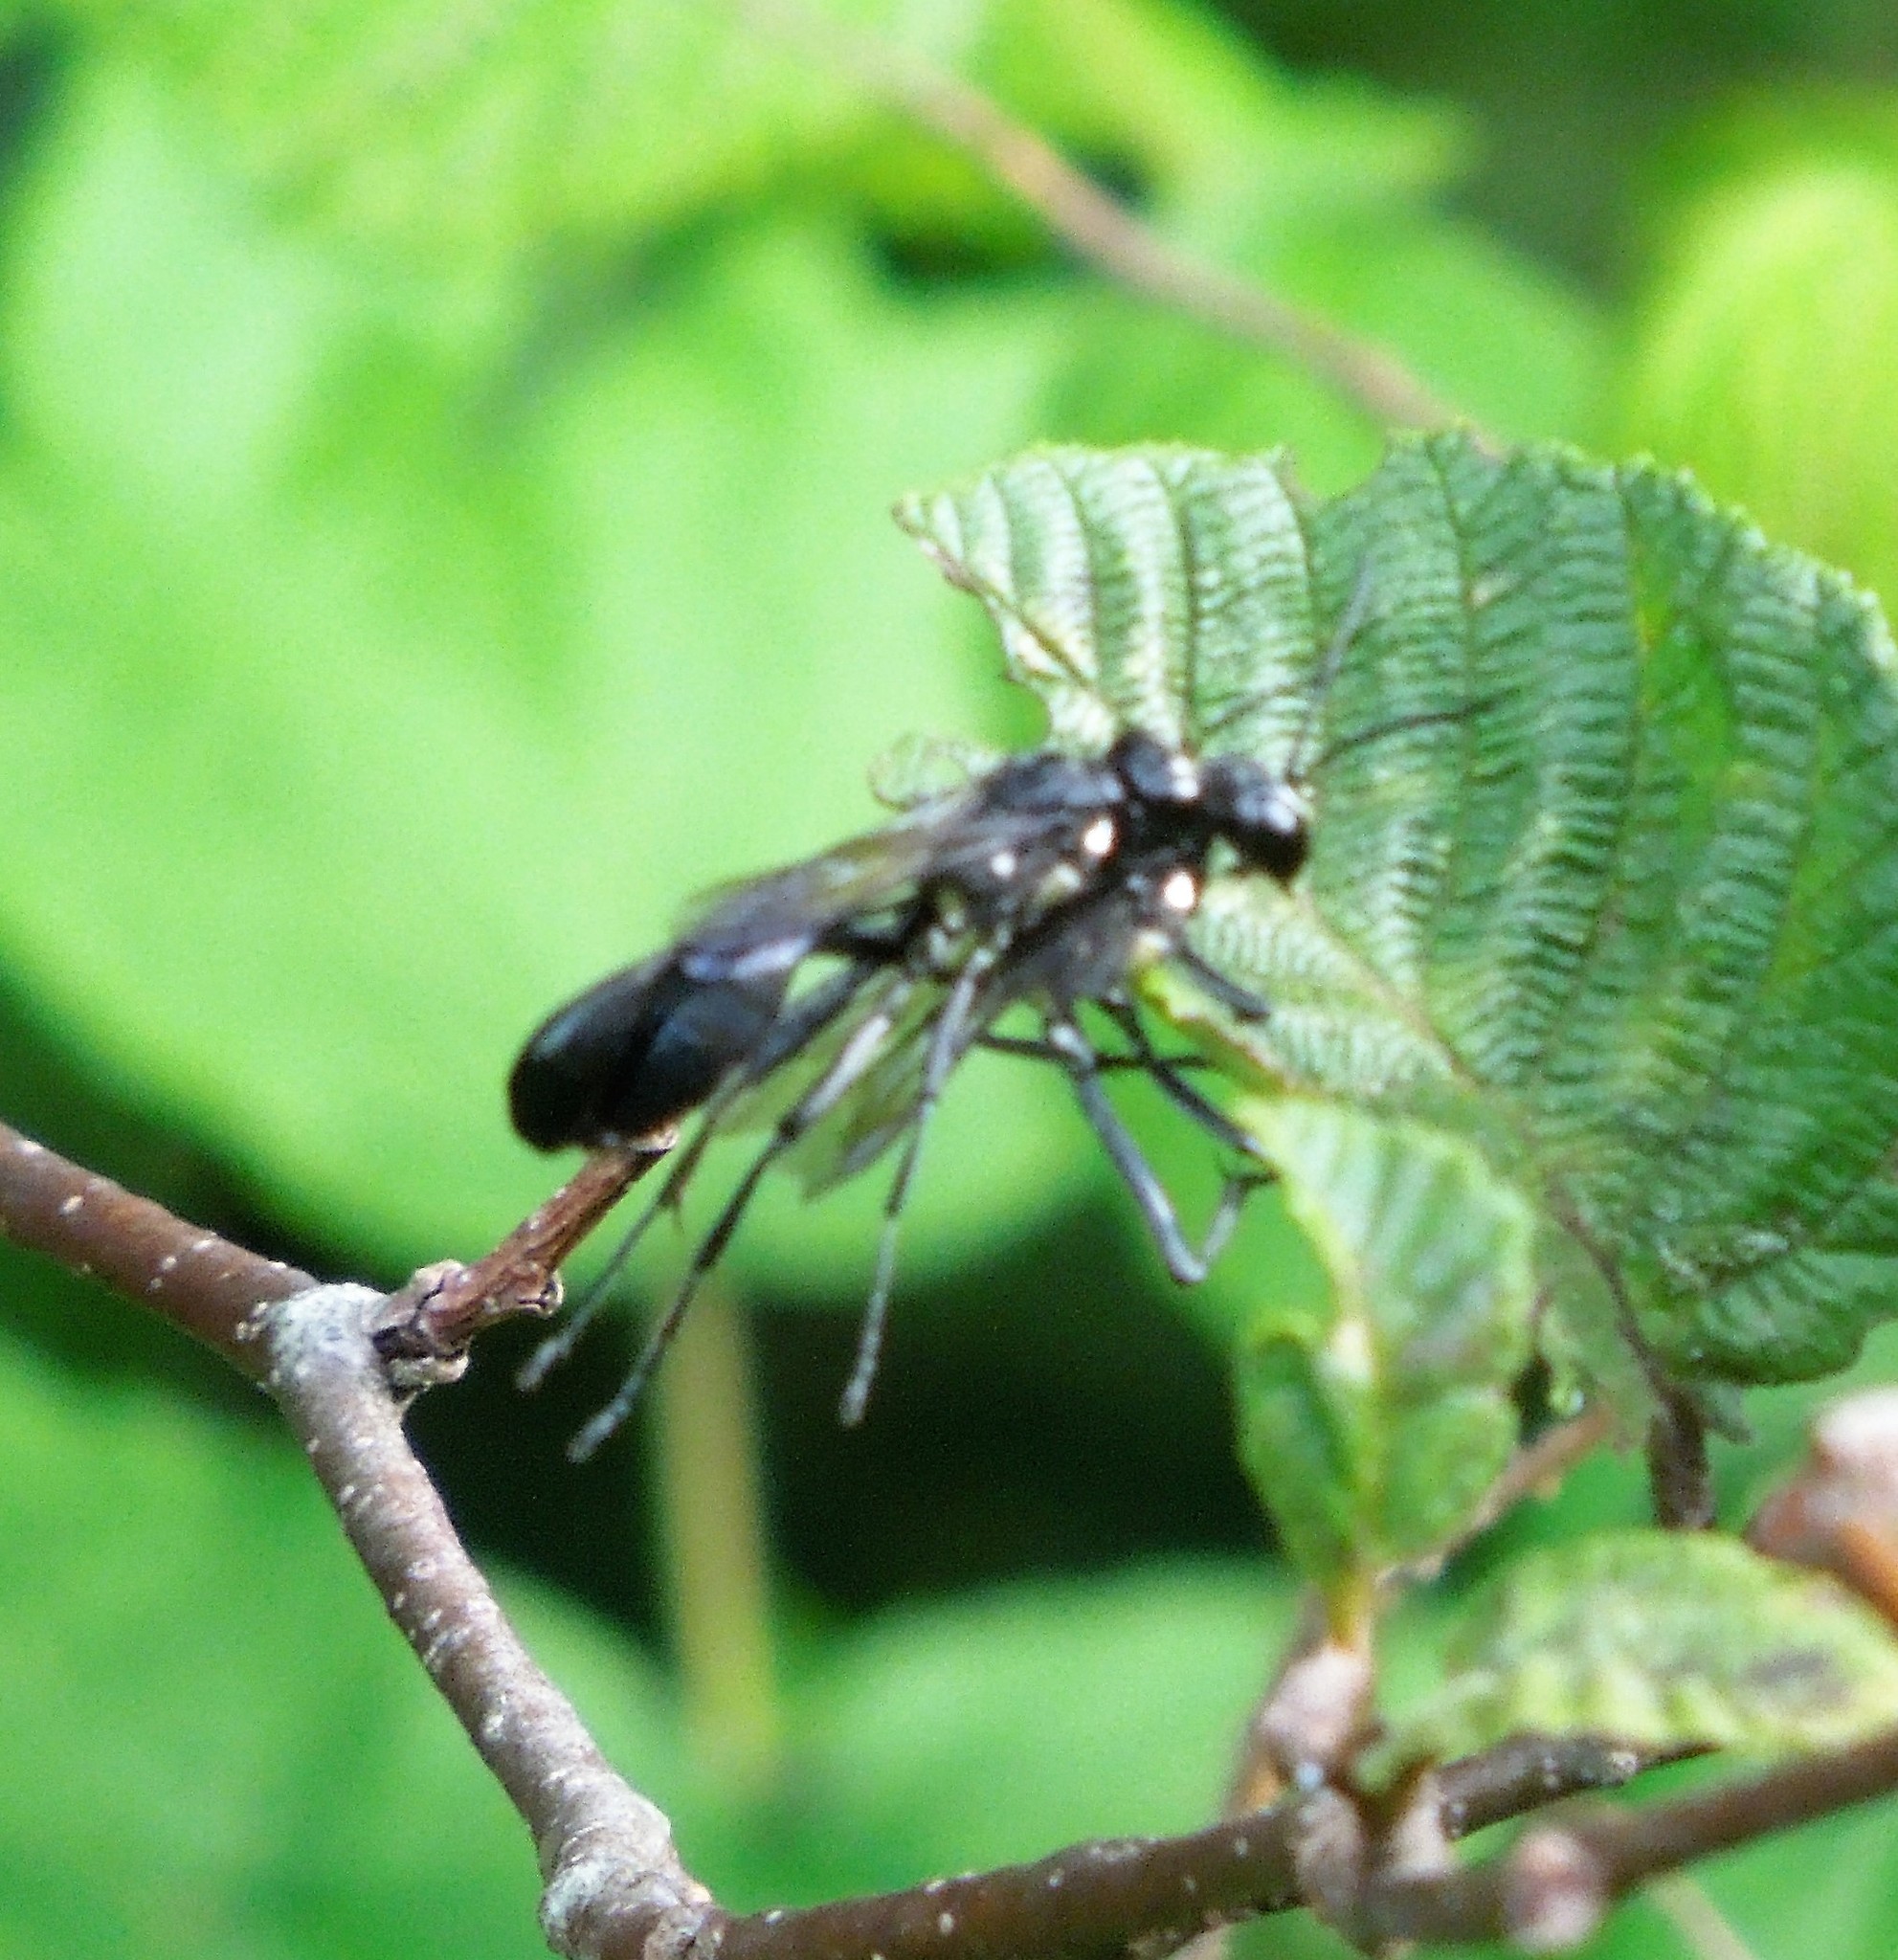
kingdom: Animalia
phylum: Arthropoda
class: Insecta
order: Hymenoptera
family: Sphecidae
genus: Eremnophila
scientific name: Eremnophila aureonotata
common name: Gold-marked thread-waisted wasp
